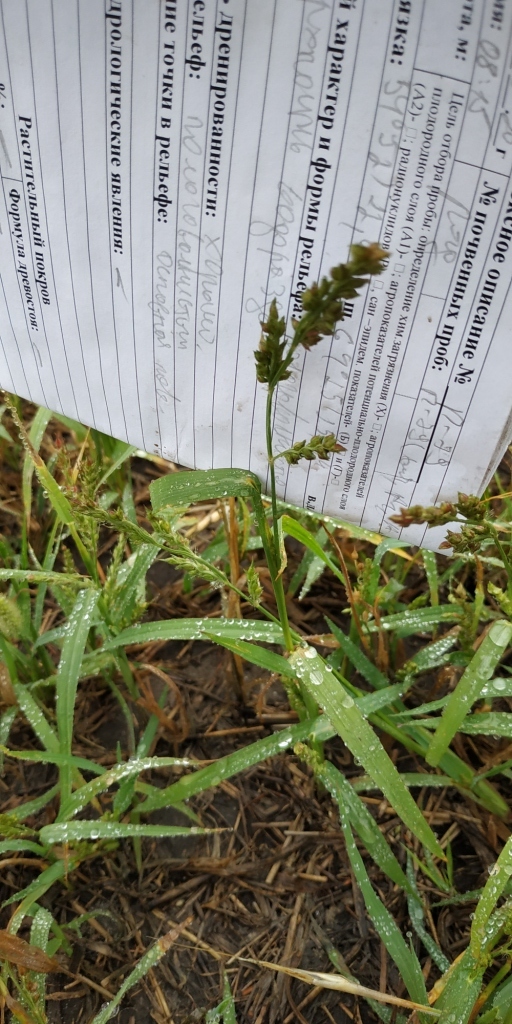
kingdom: Plantae
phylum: Tracheophyta
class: Liliopsida
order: Poales
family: Poaceae
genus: Echinochloa
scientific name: Echinochloa crus-galli
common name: Cockspur
